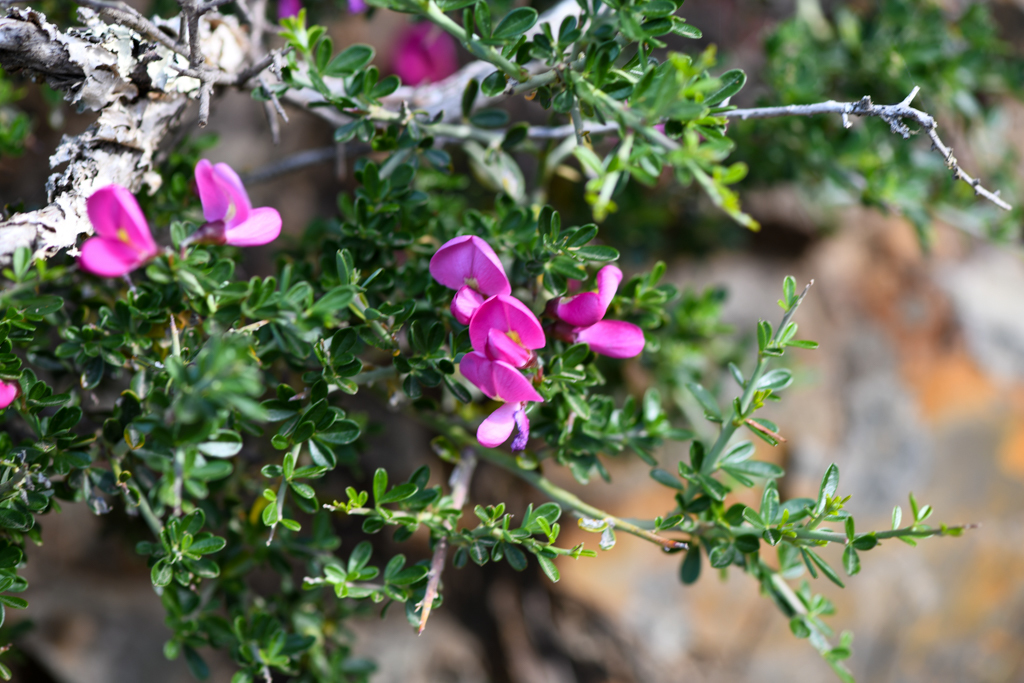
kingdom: Plantae
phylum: Tracheophyta
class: Magnoliopsida
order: Fabales
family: Fabaceae
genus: Pickeringia
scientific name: Pickeringia montana
